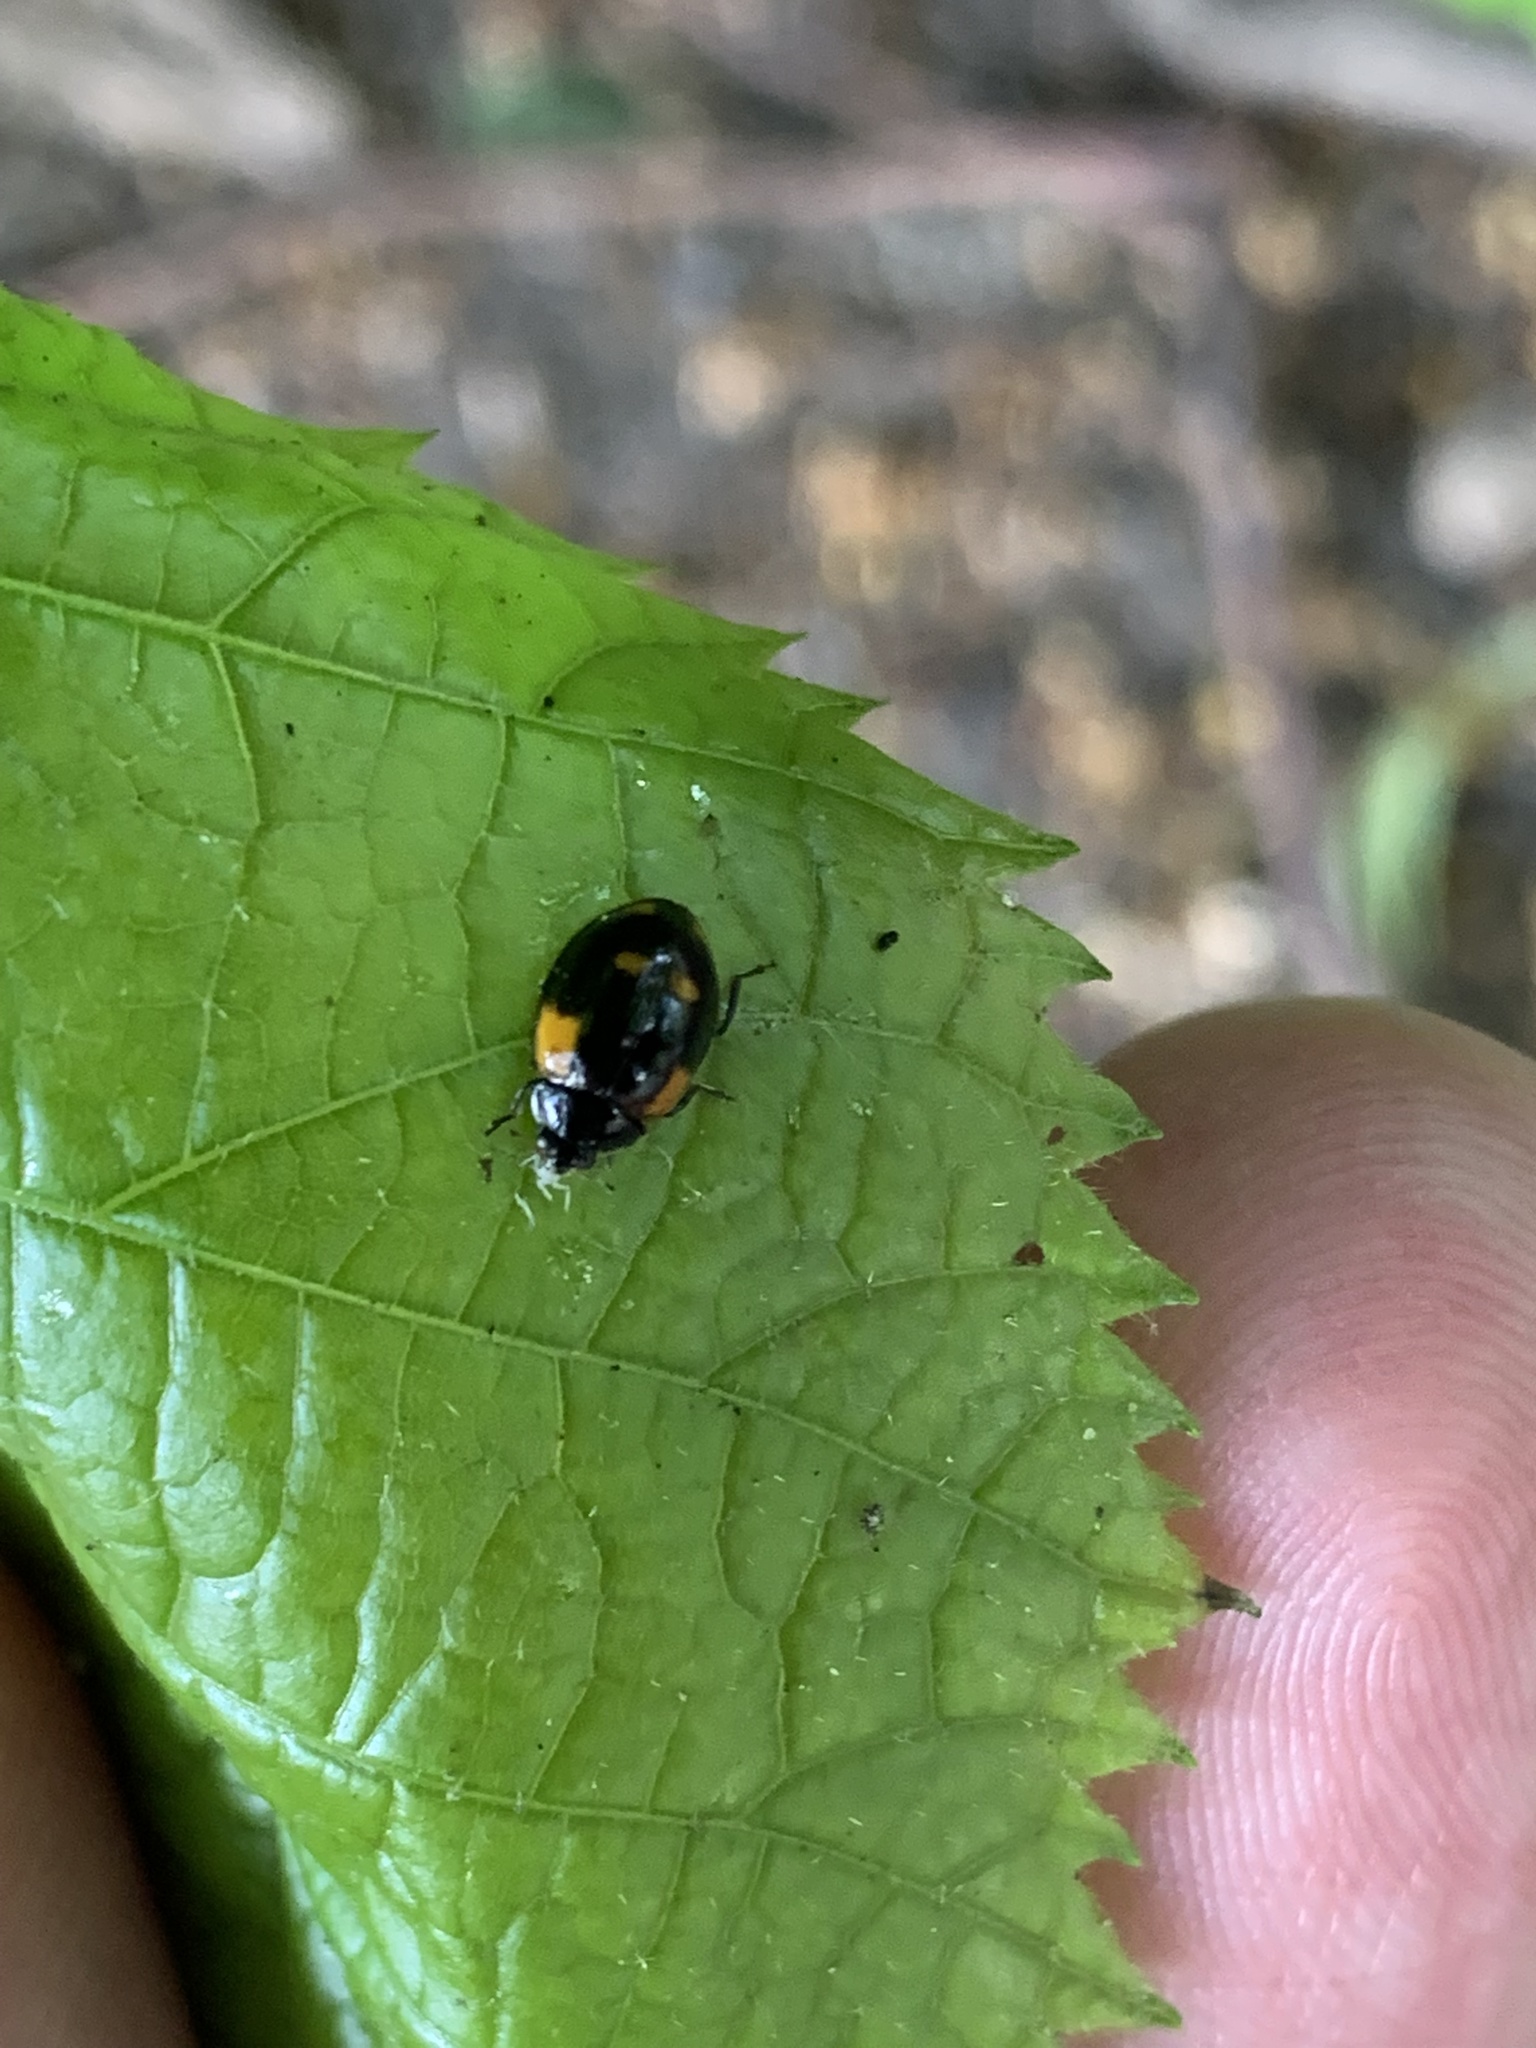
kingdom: Animalia
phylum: Arthropoda
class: Insecta
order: Coleoptera
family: Coccinellidae
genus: Adalia
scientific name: Adalia bipunctata
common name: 2-spot ladybird
